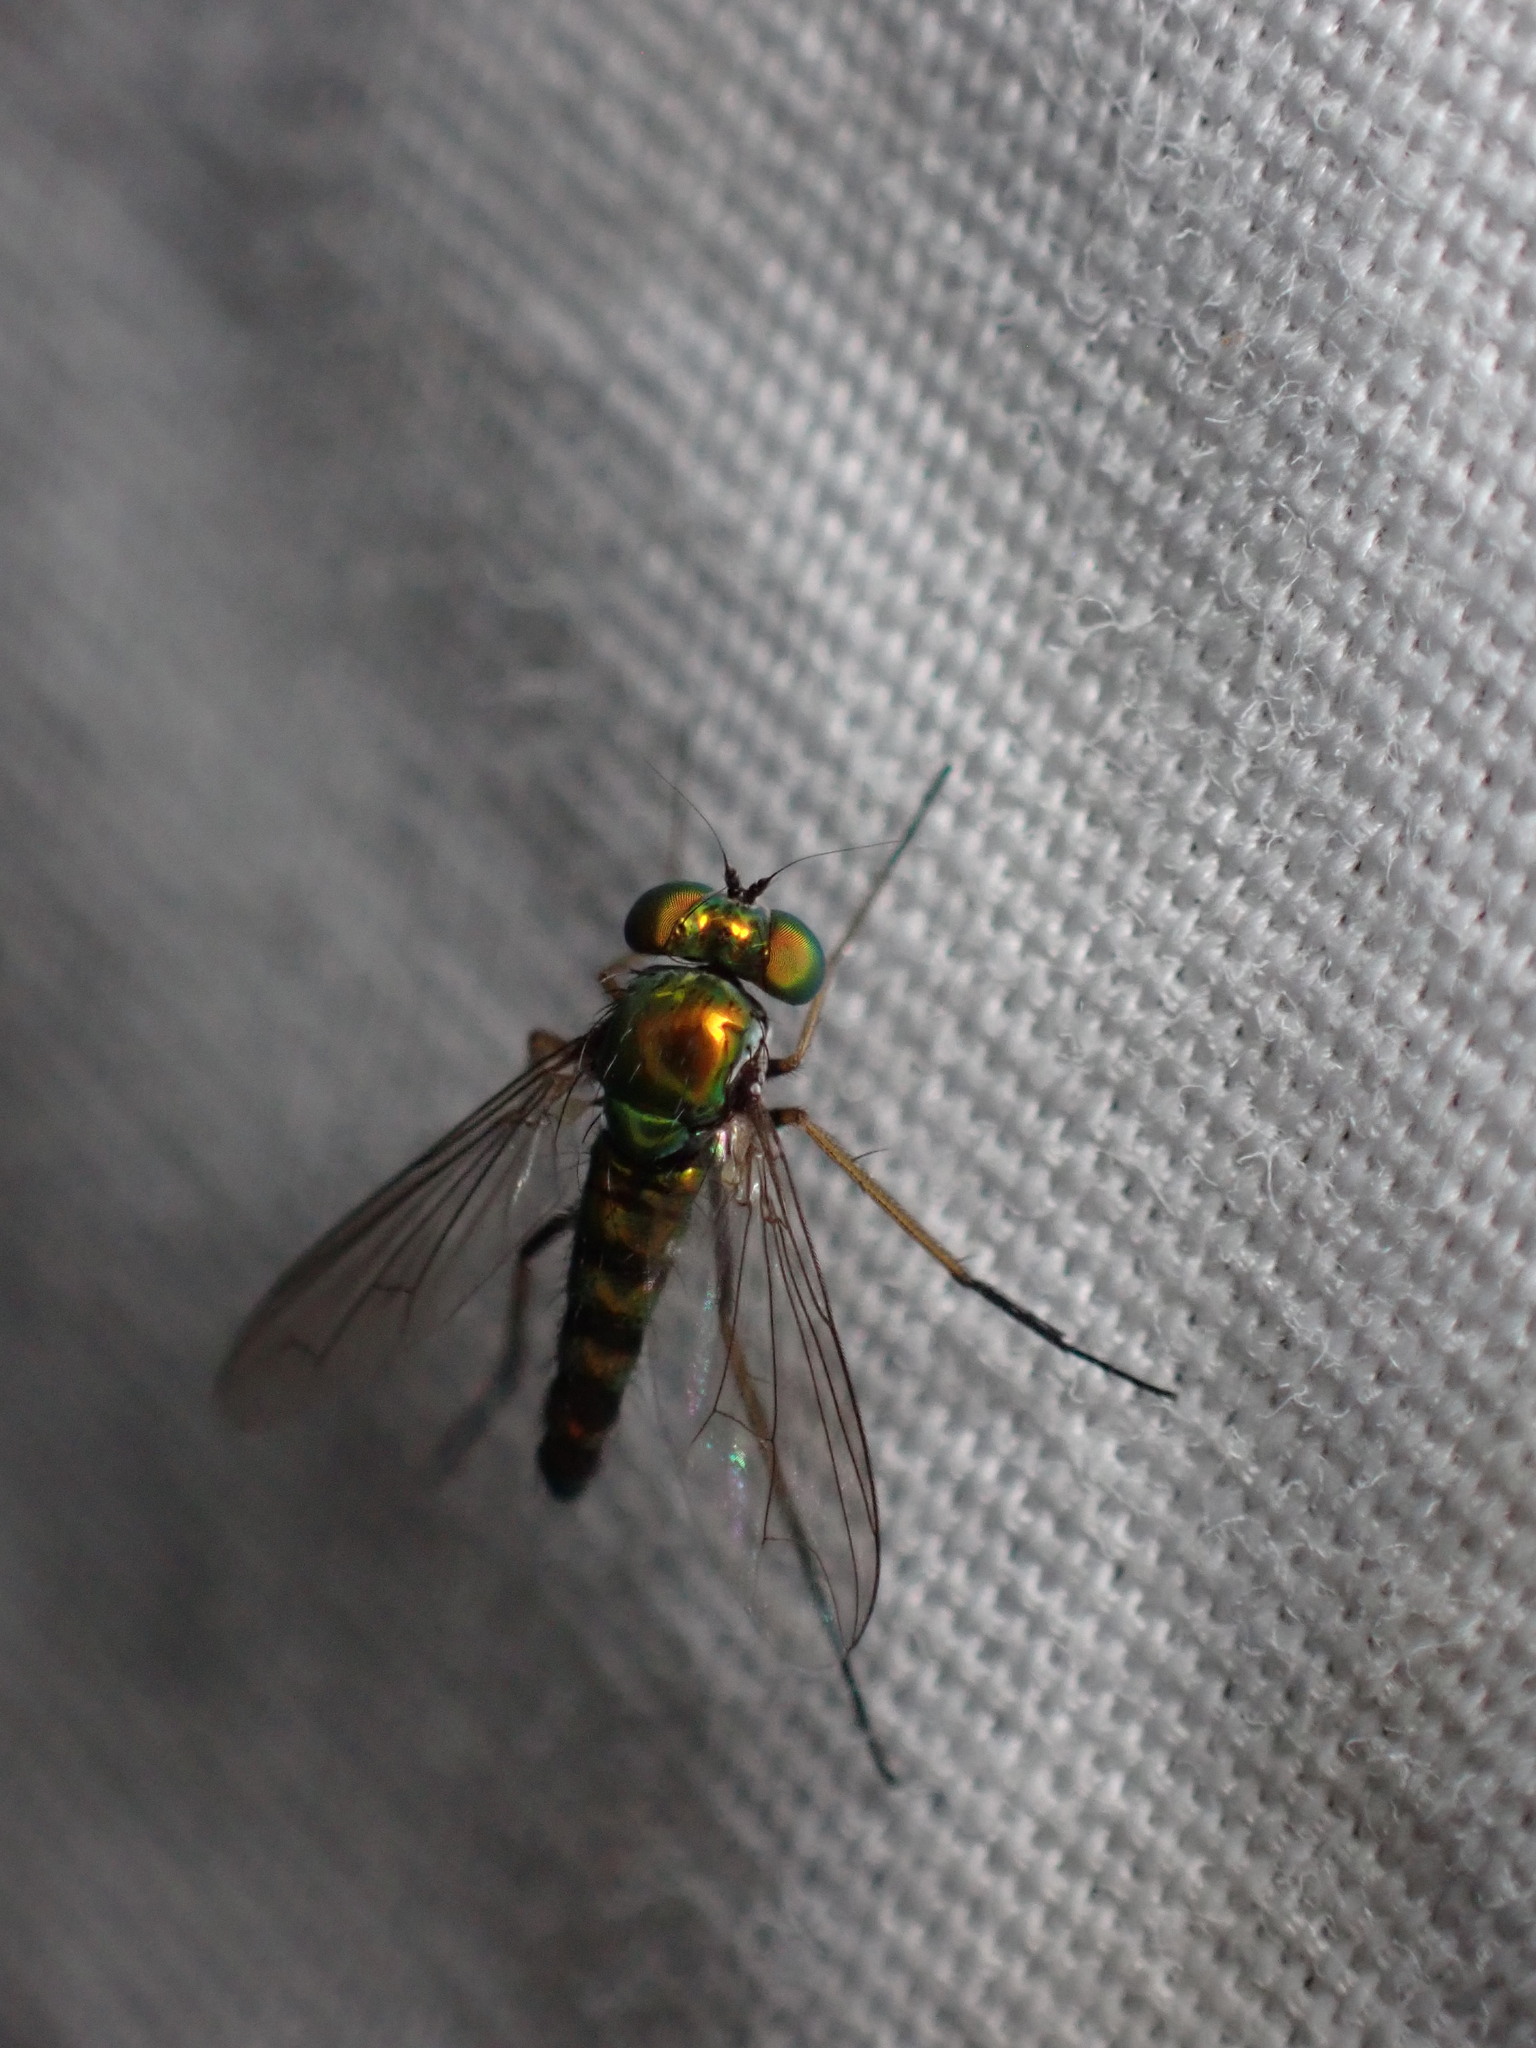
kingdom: Animalia
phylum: Arthropoda
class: Insecta
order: Diptera
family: Dolichopodidae
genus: Condylostylus
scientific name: Condylostylus connectans
